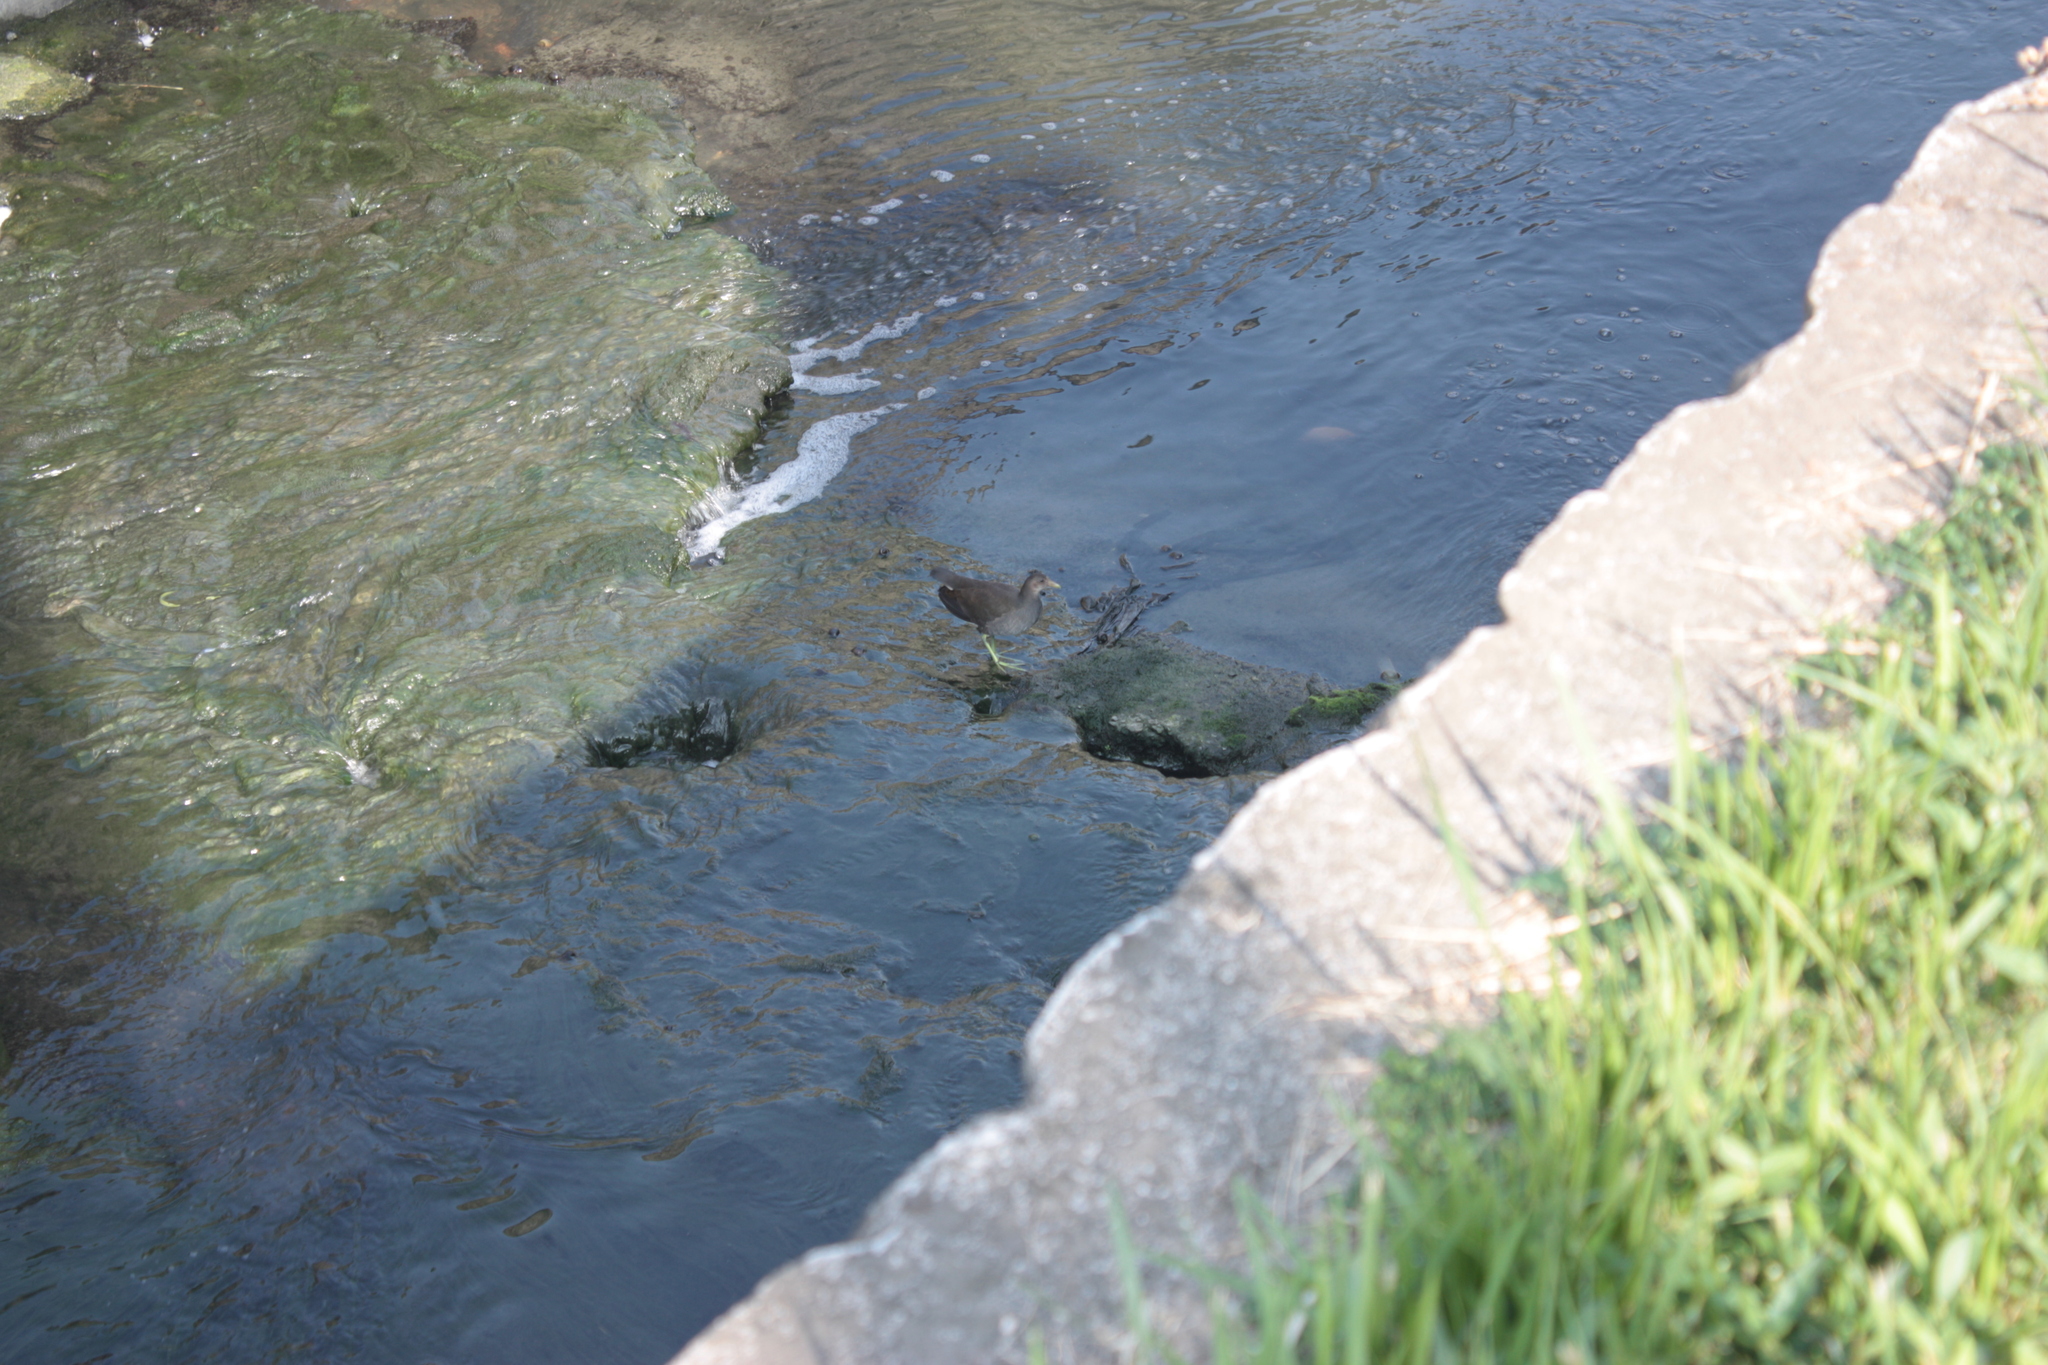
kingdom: Animalia
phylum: Chordata
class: Aves
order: Gruiformes
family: Rallidae
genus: Gallinula
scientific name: Gallinula chloropus
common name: Common moorhen
